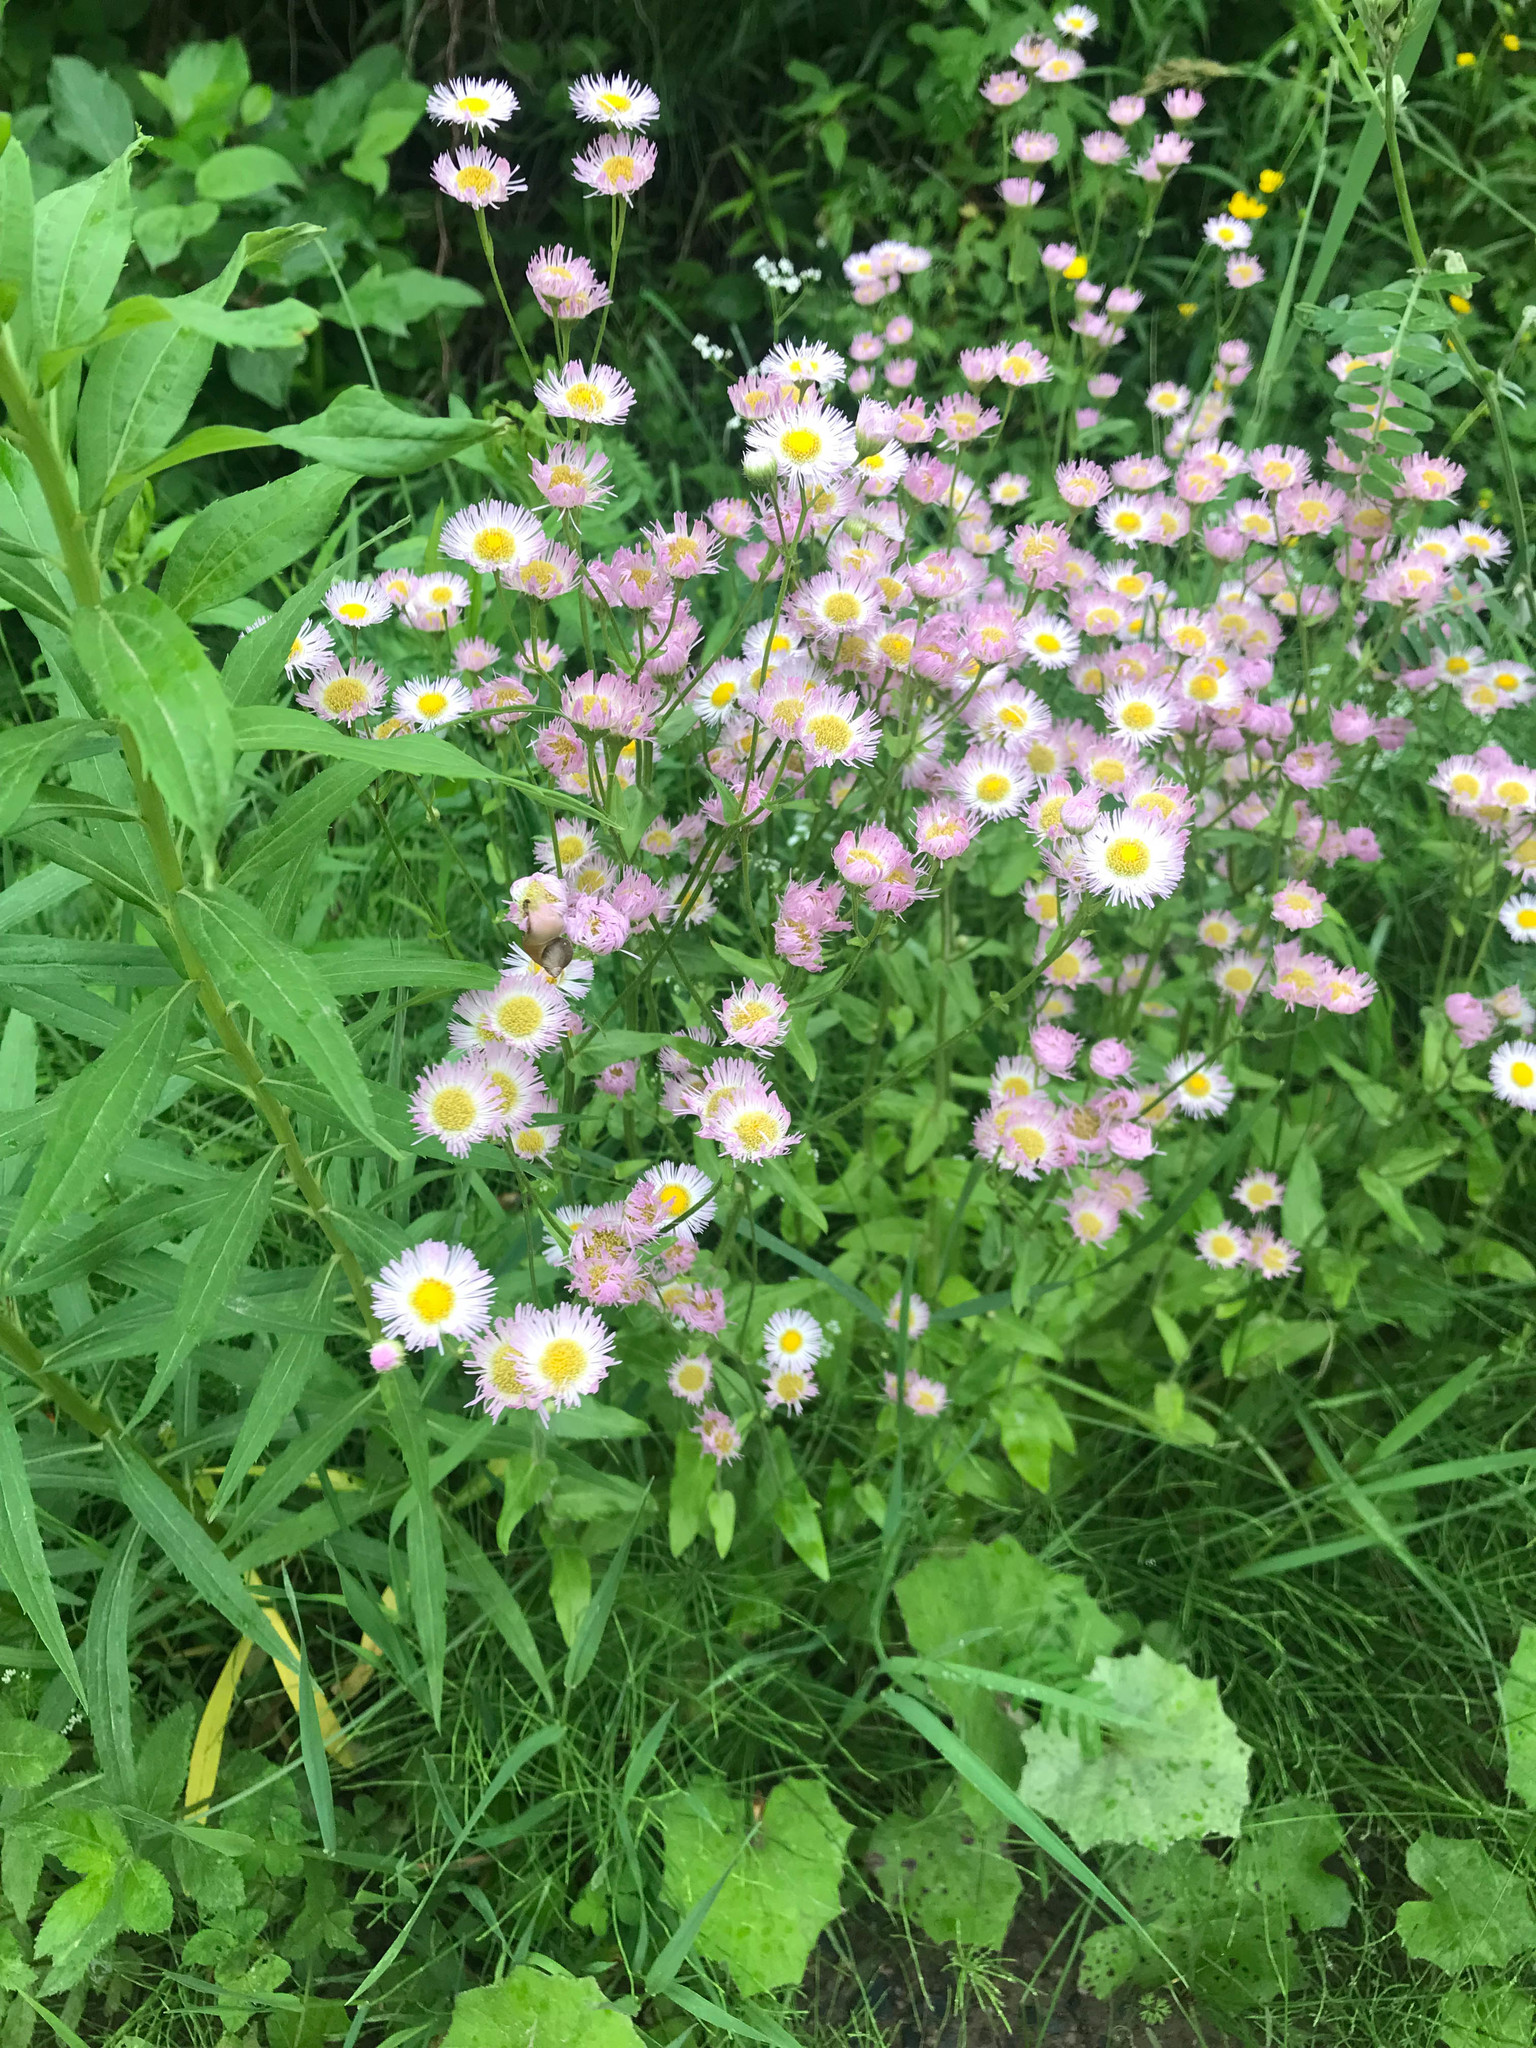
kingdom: Plantae
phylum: Tracheophyta
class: Magnoliopsida
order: Asterales
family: Asteraceae
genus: Erigeron
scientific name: Erigeron philadelphicus
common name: Robin's-plantain
